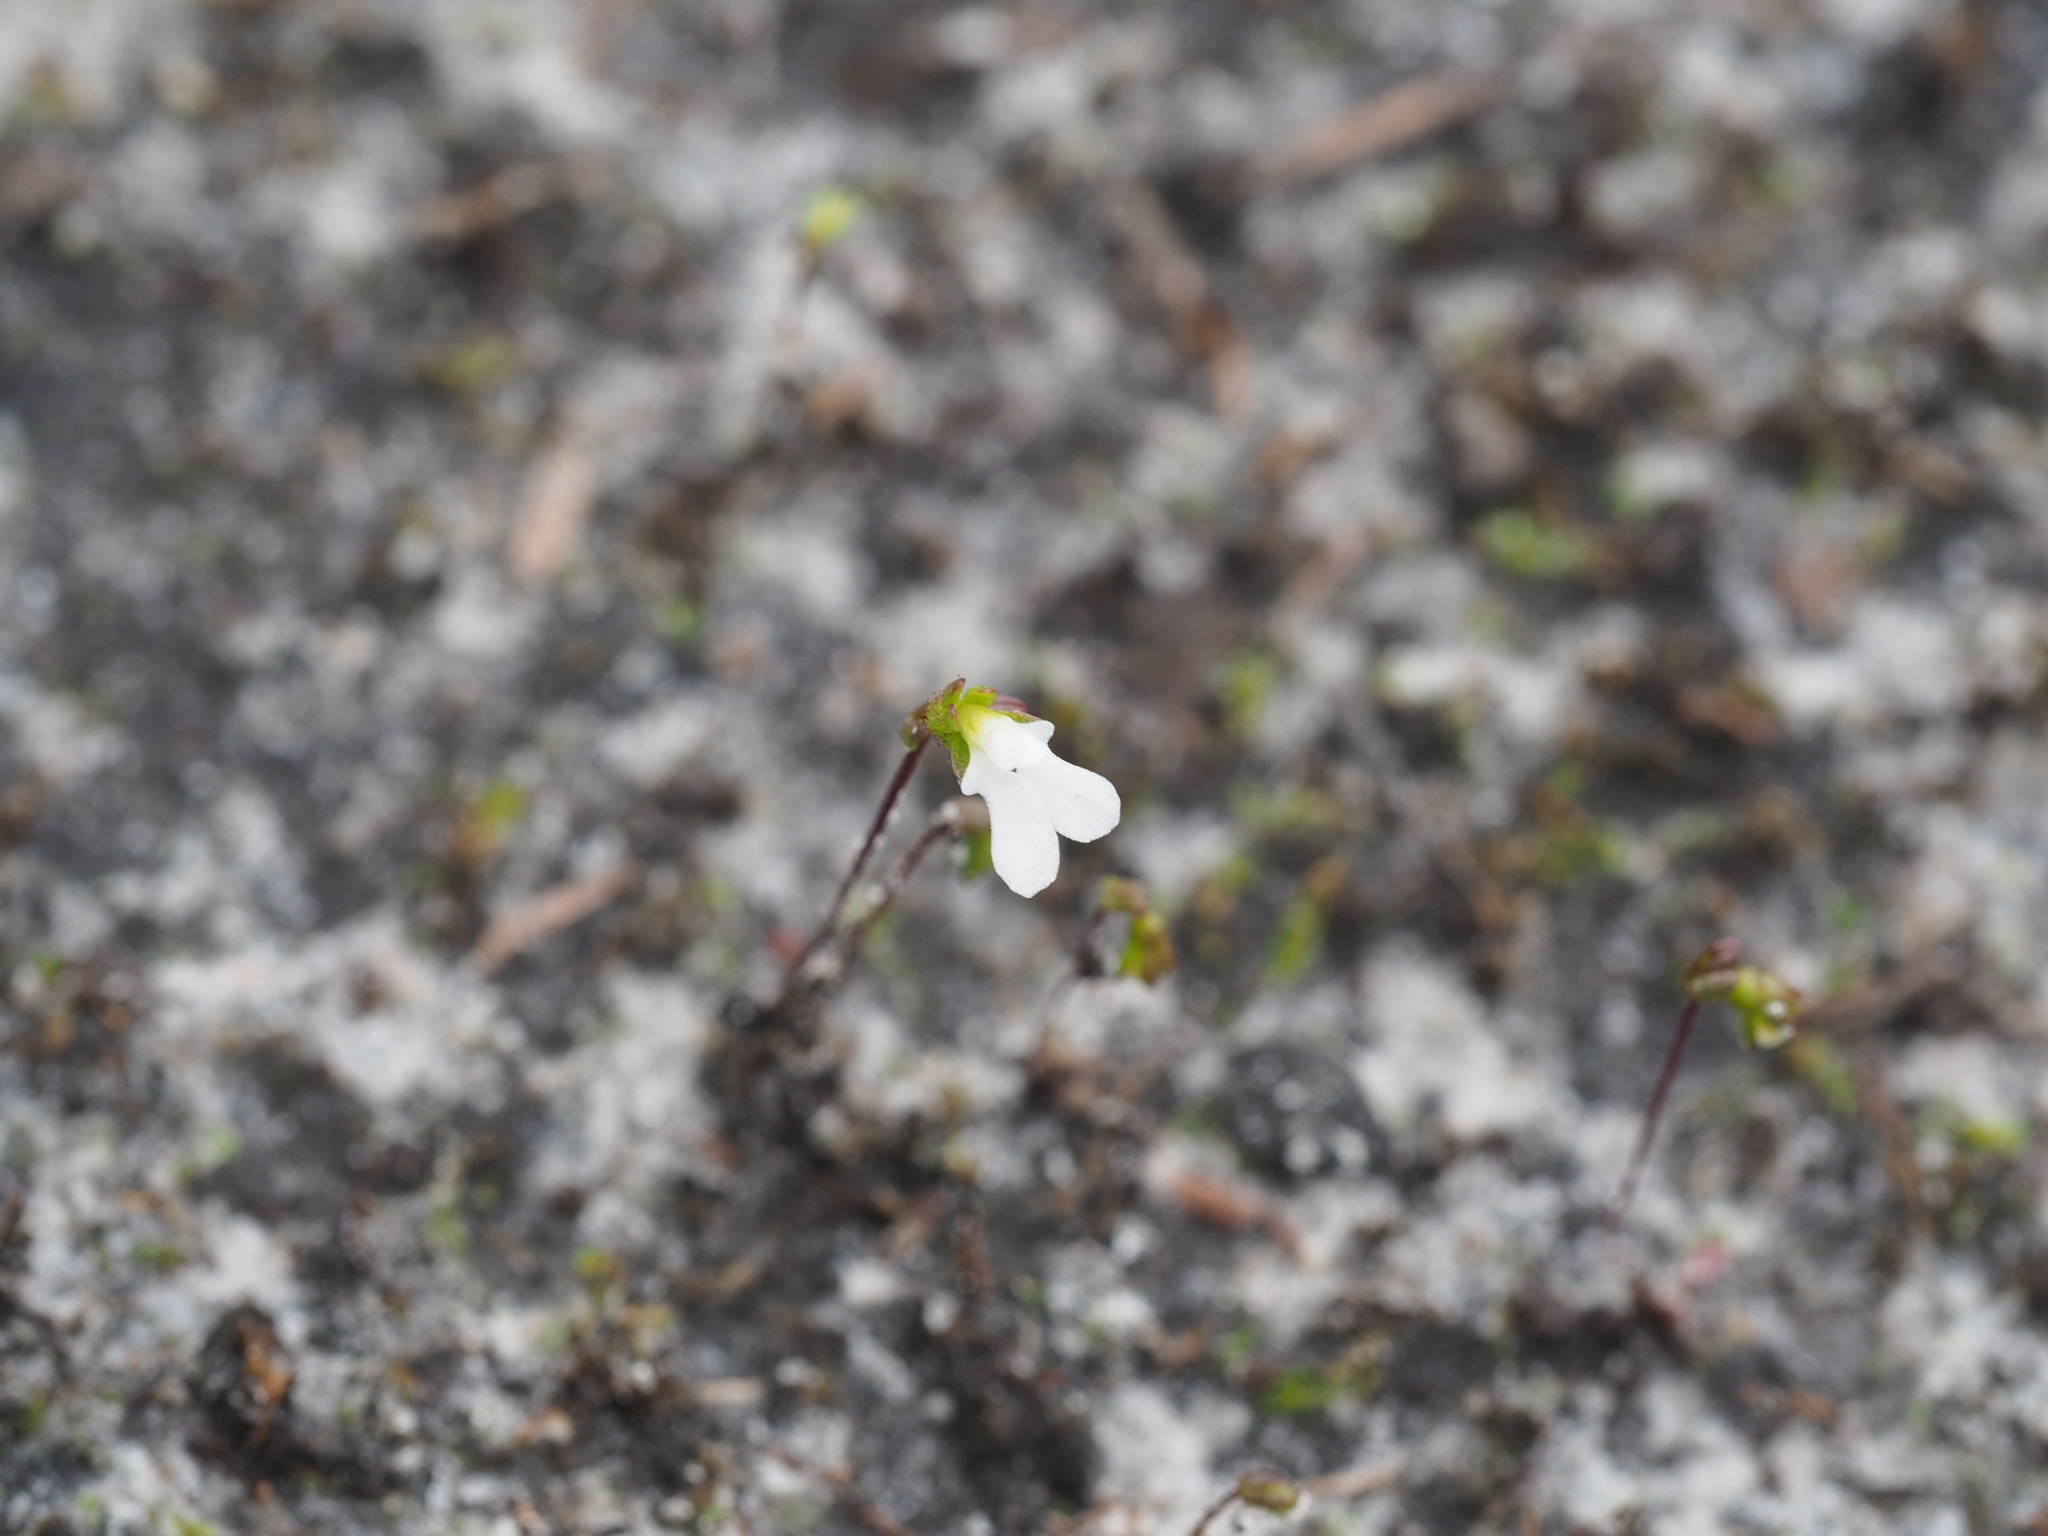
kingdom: Plantae
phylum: Tracheophyta
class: Magnoliopsida
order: Asterales
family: Stylidiaceae
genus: Stylidium
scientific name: Stylidium perpusillum
